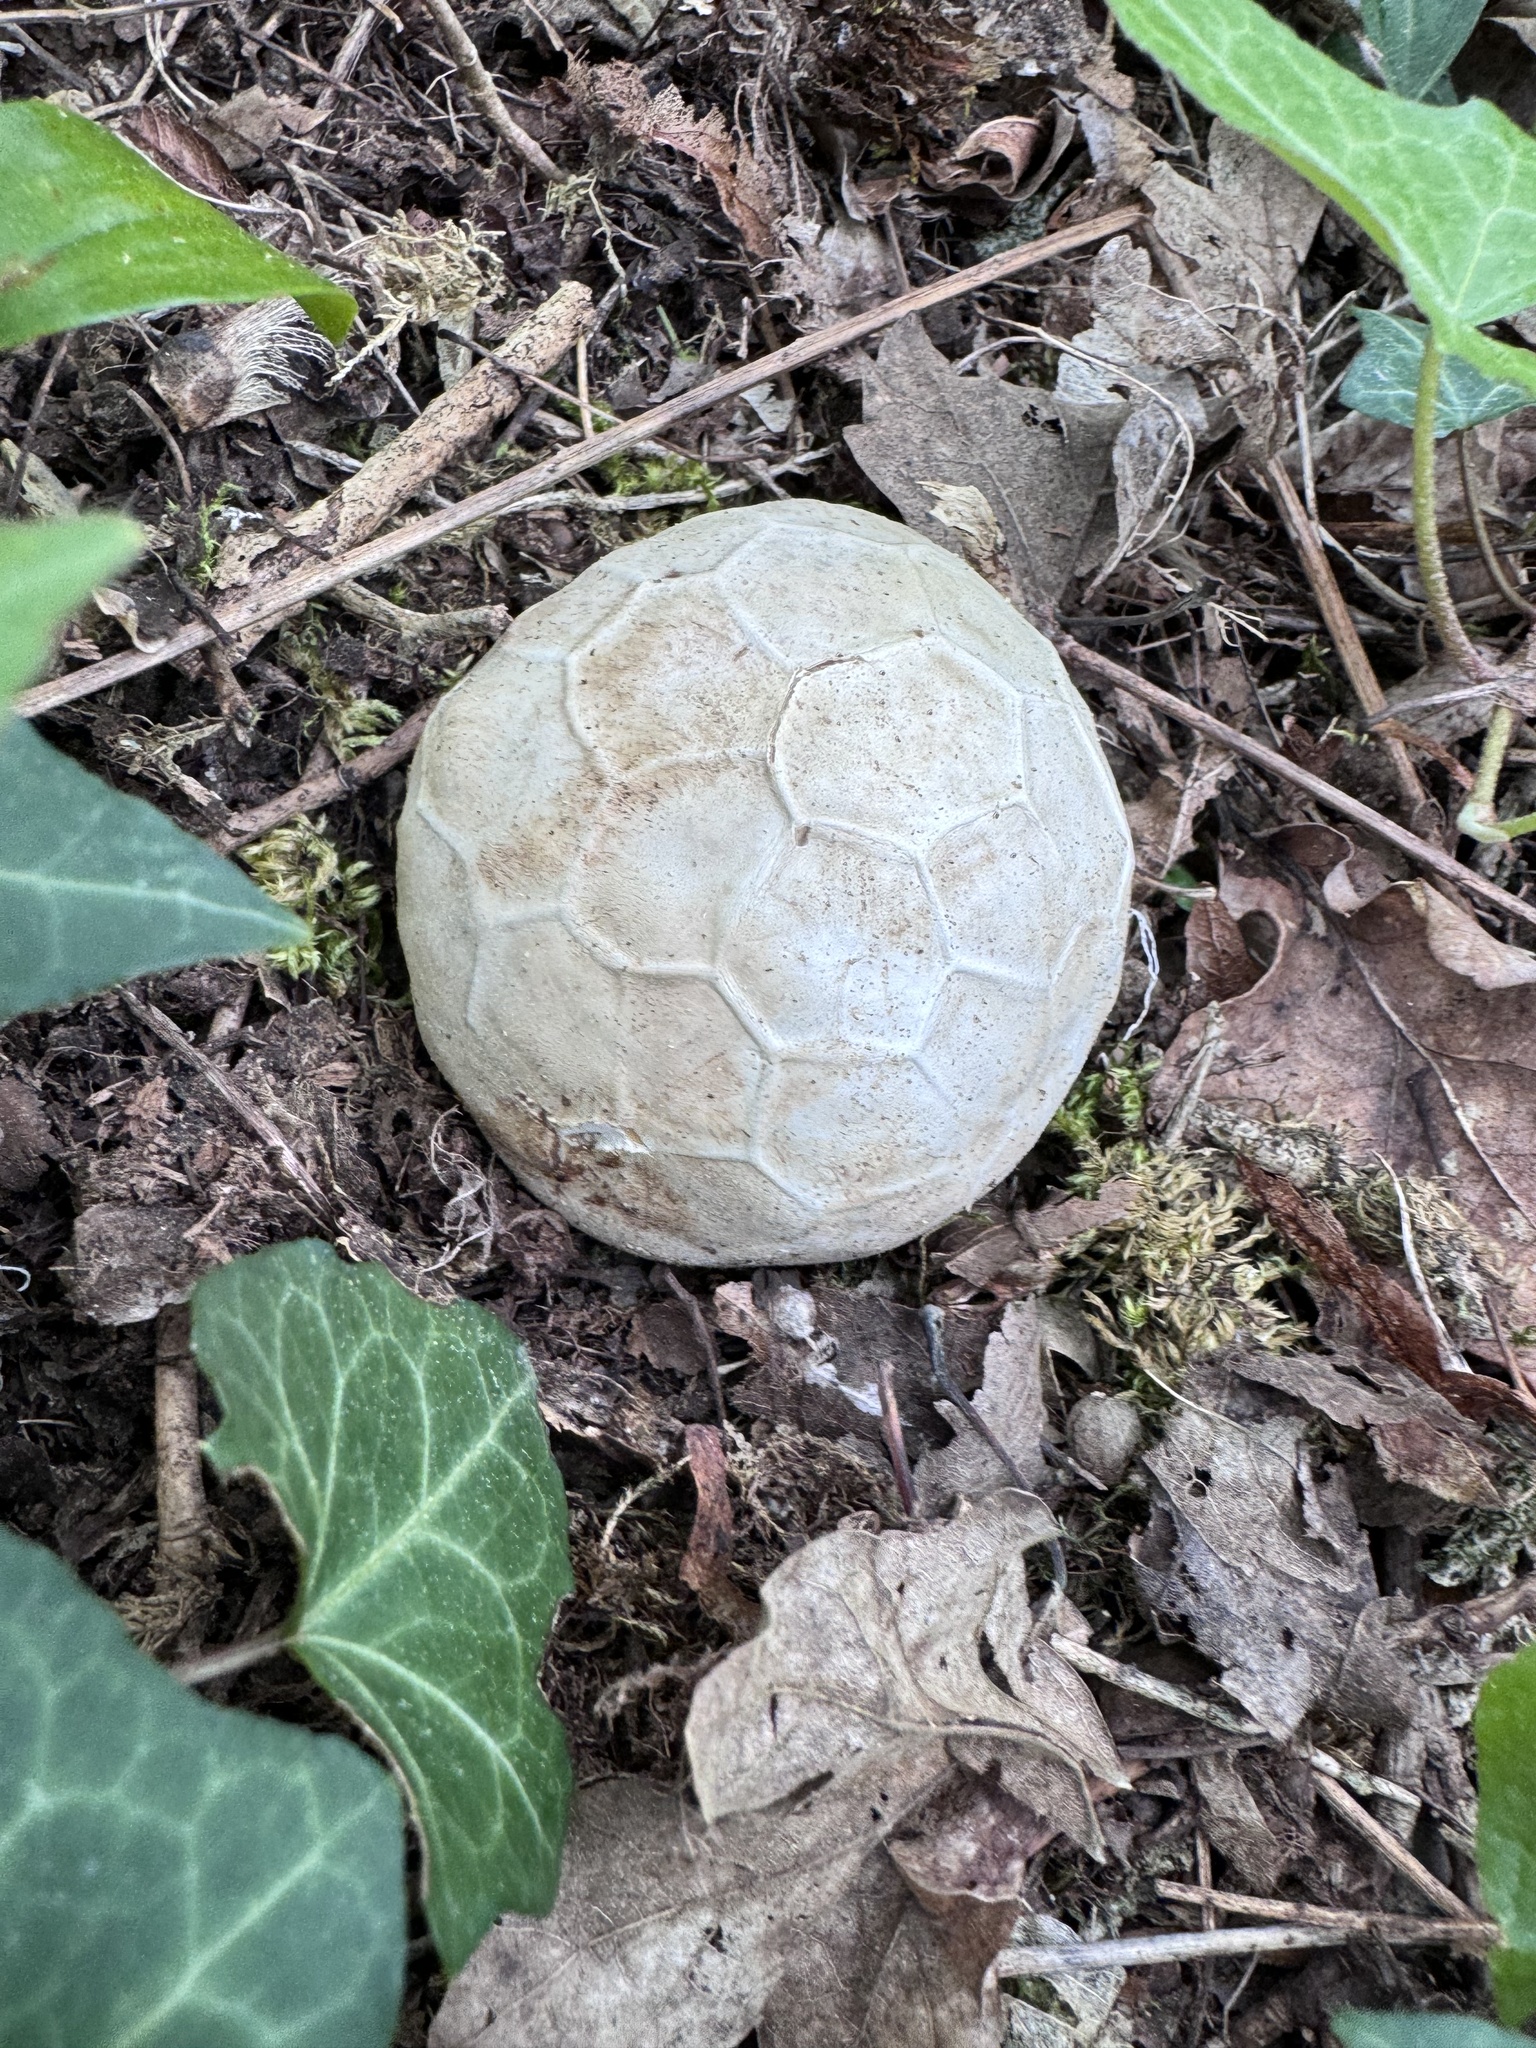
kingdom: Fungi
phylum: Basidiomycota
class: Agaricomycetes
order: Phallales
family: Phallaceae
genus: Clathrus
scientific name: Clathrus ruber
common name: Red cage
